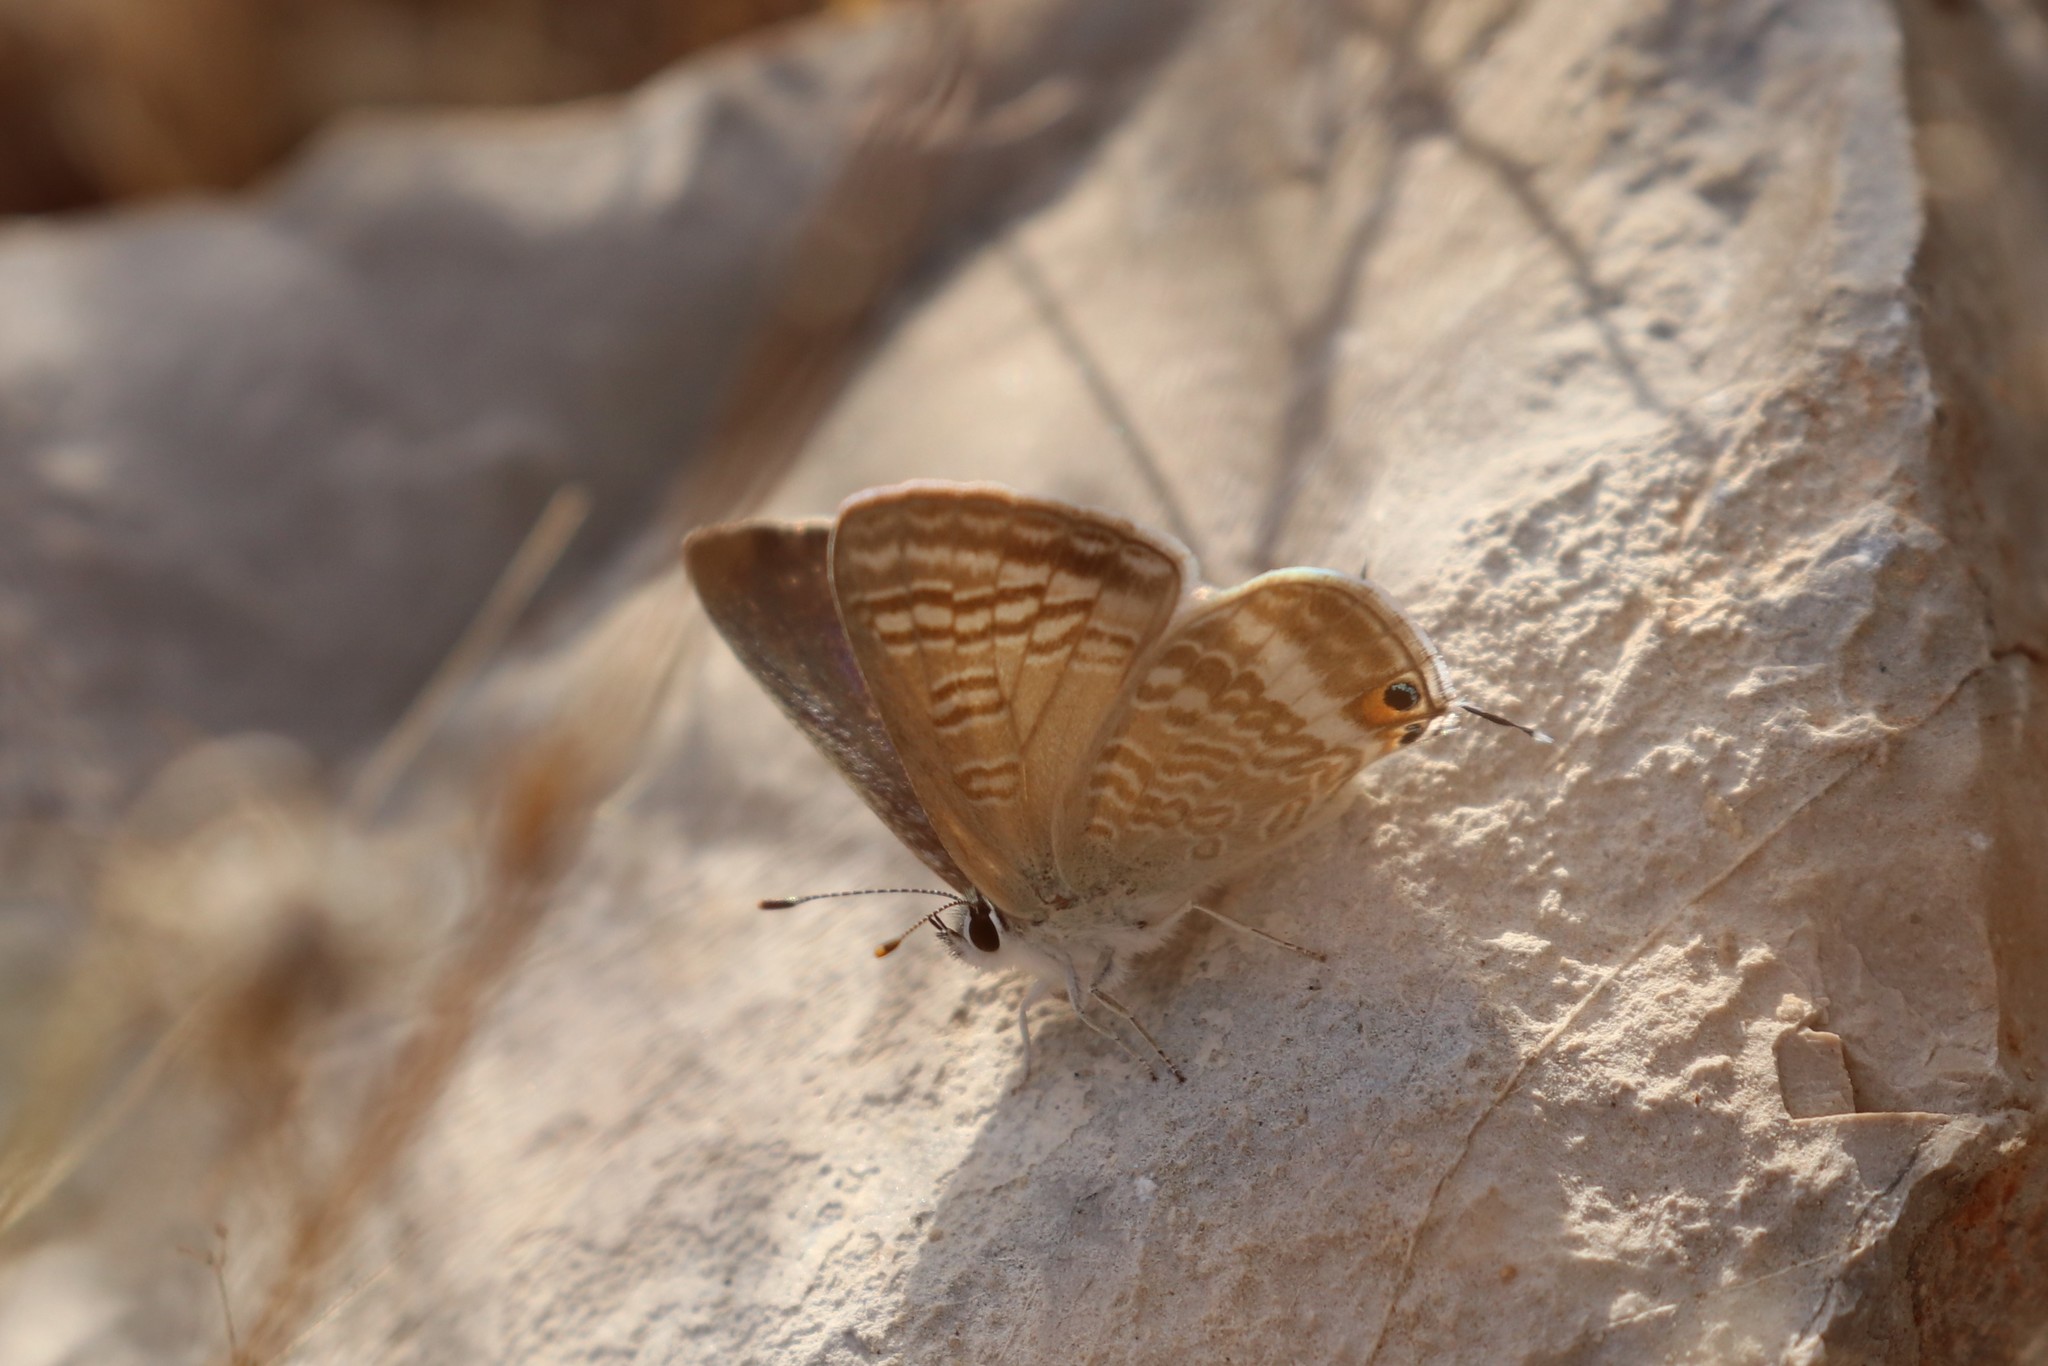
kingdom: Animalia
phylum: Arthropoda
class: Insecta
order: Lepidoptera
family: Lycaenidae
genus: Lampides
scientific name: Lampides boeticus
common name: Long-tailed blue
